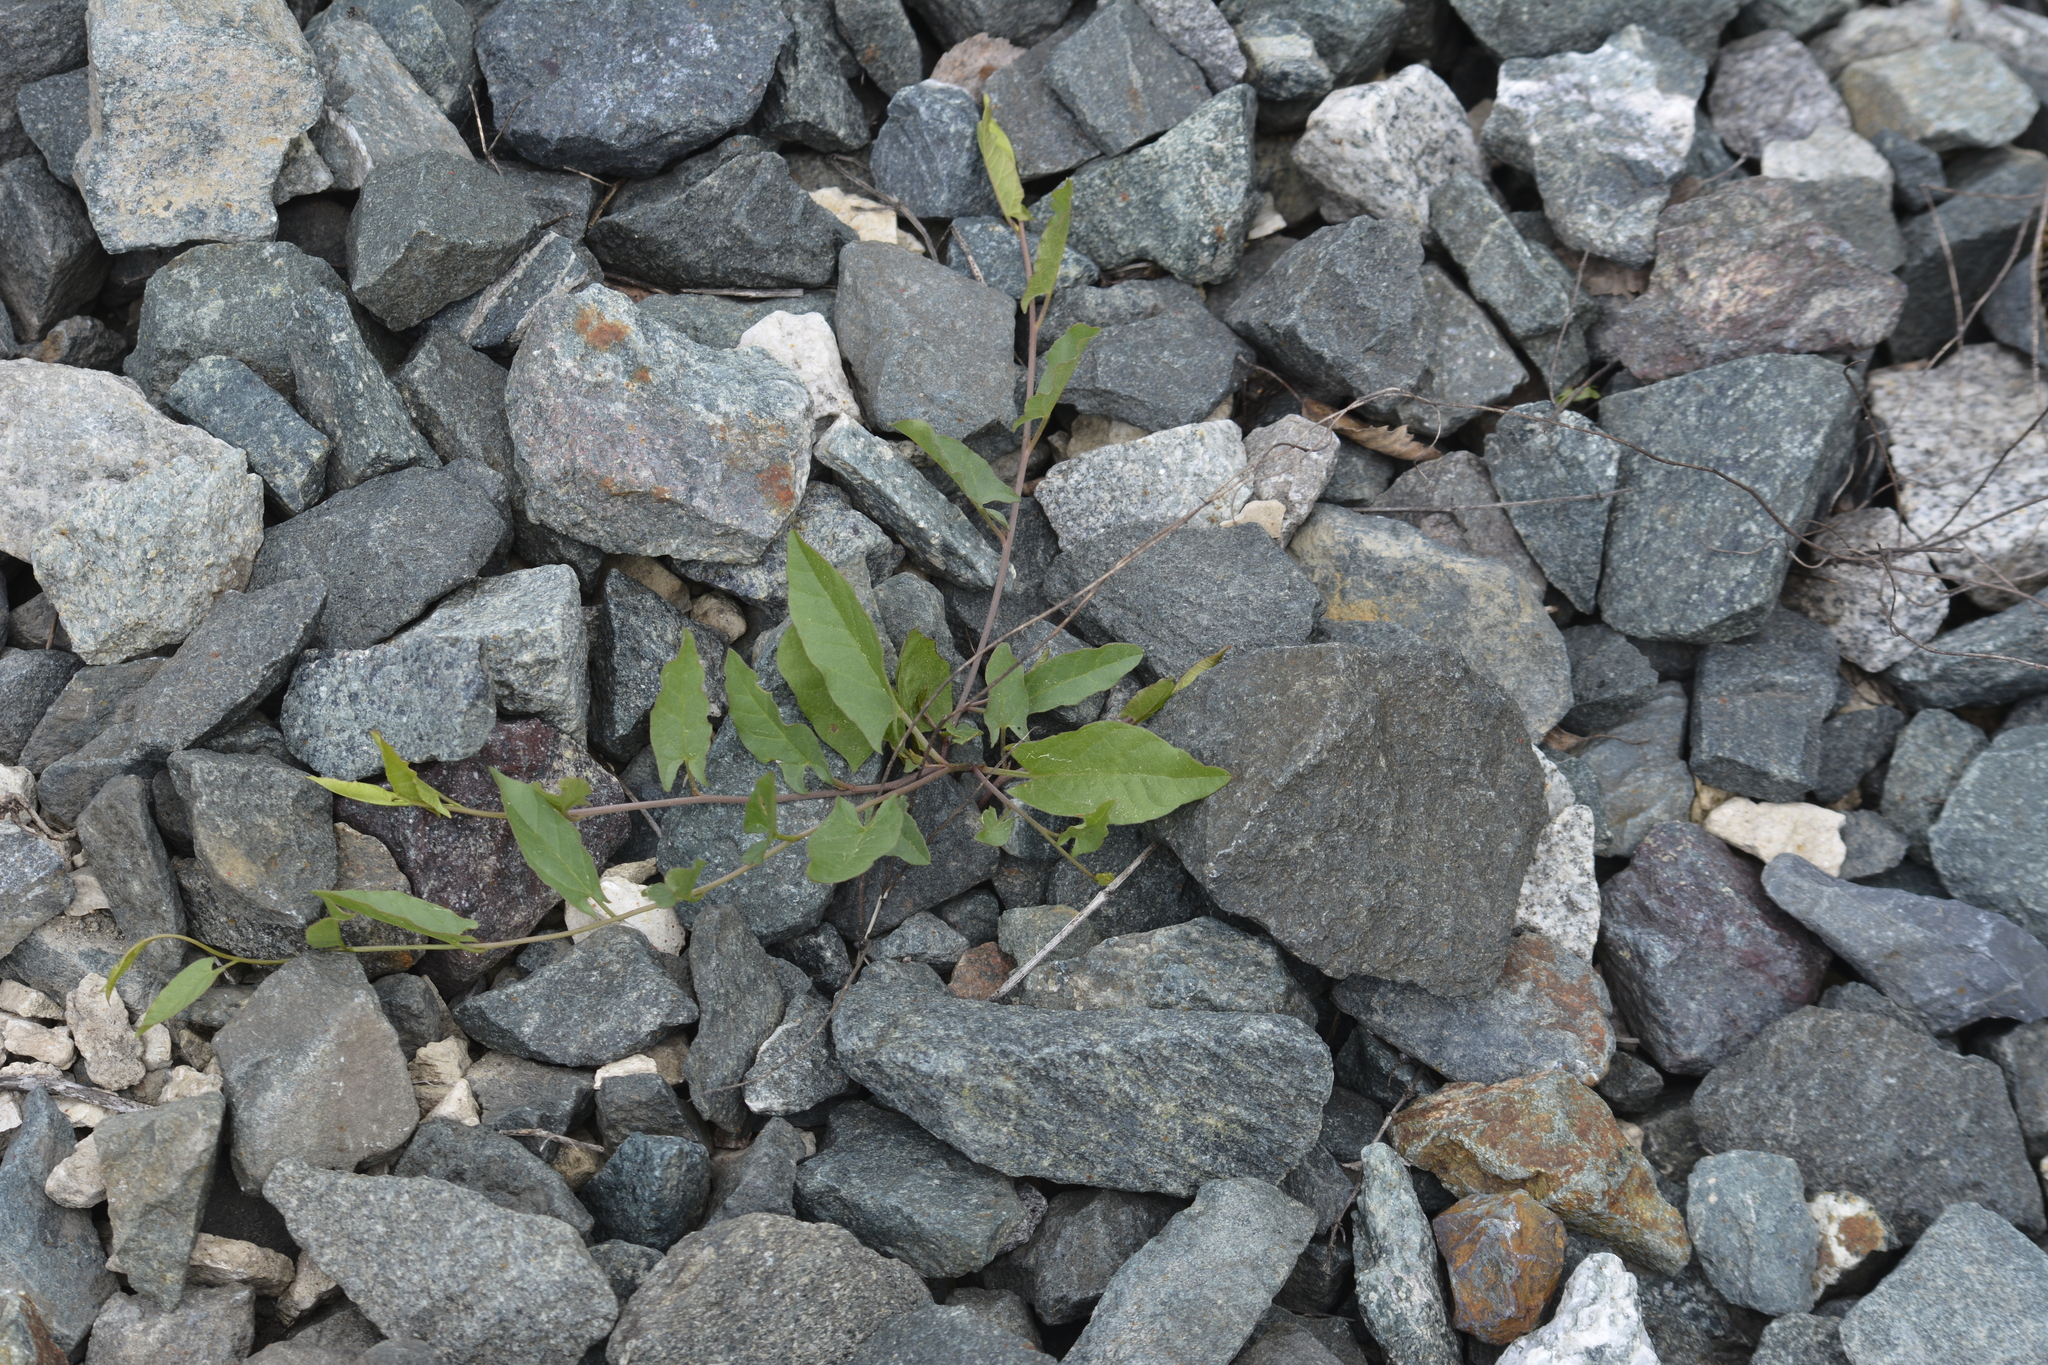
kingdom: Plantae
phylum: Tracheophyta
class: Magnoliopsida
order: Solanales
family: Convolvulaceae
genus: Convolvulus
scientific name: Convolvulus arvensis
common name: Field bindweed
